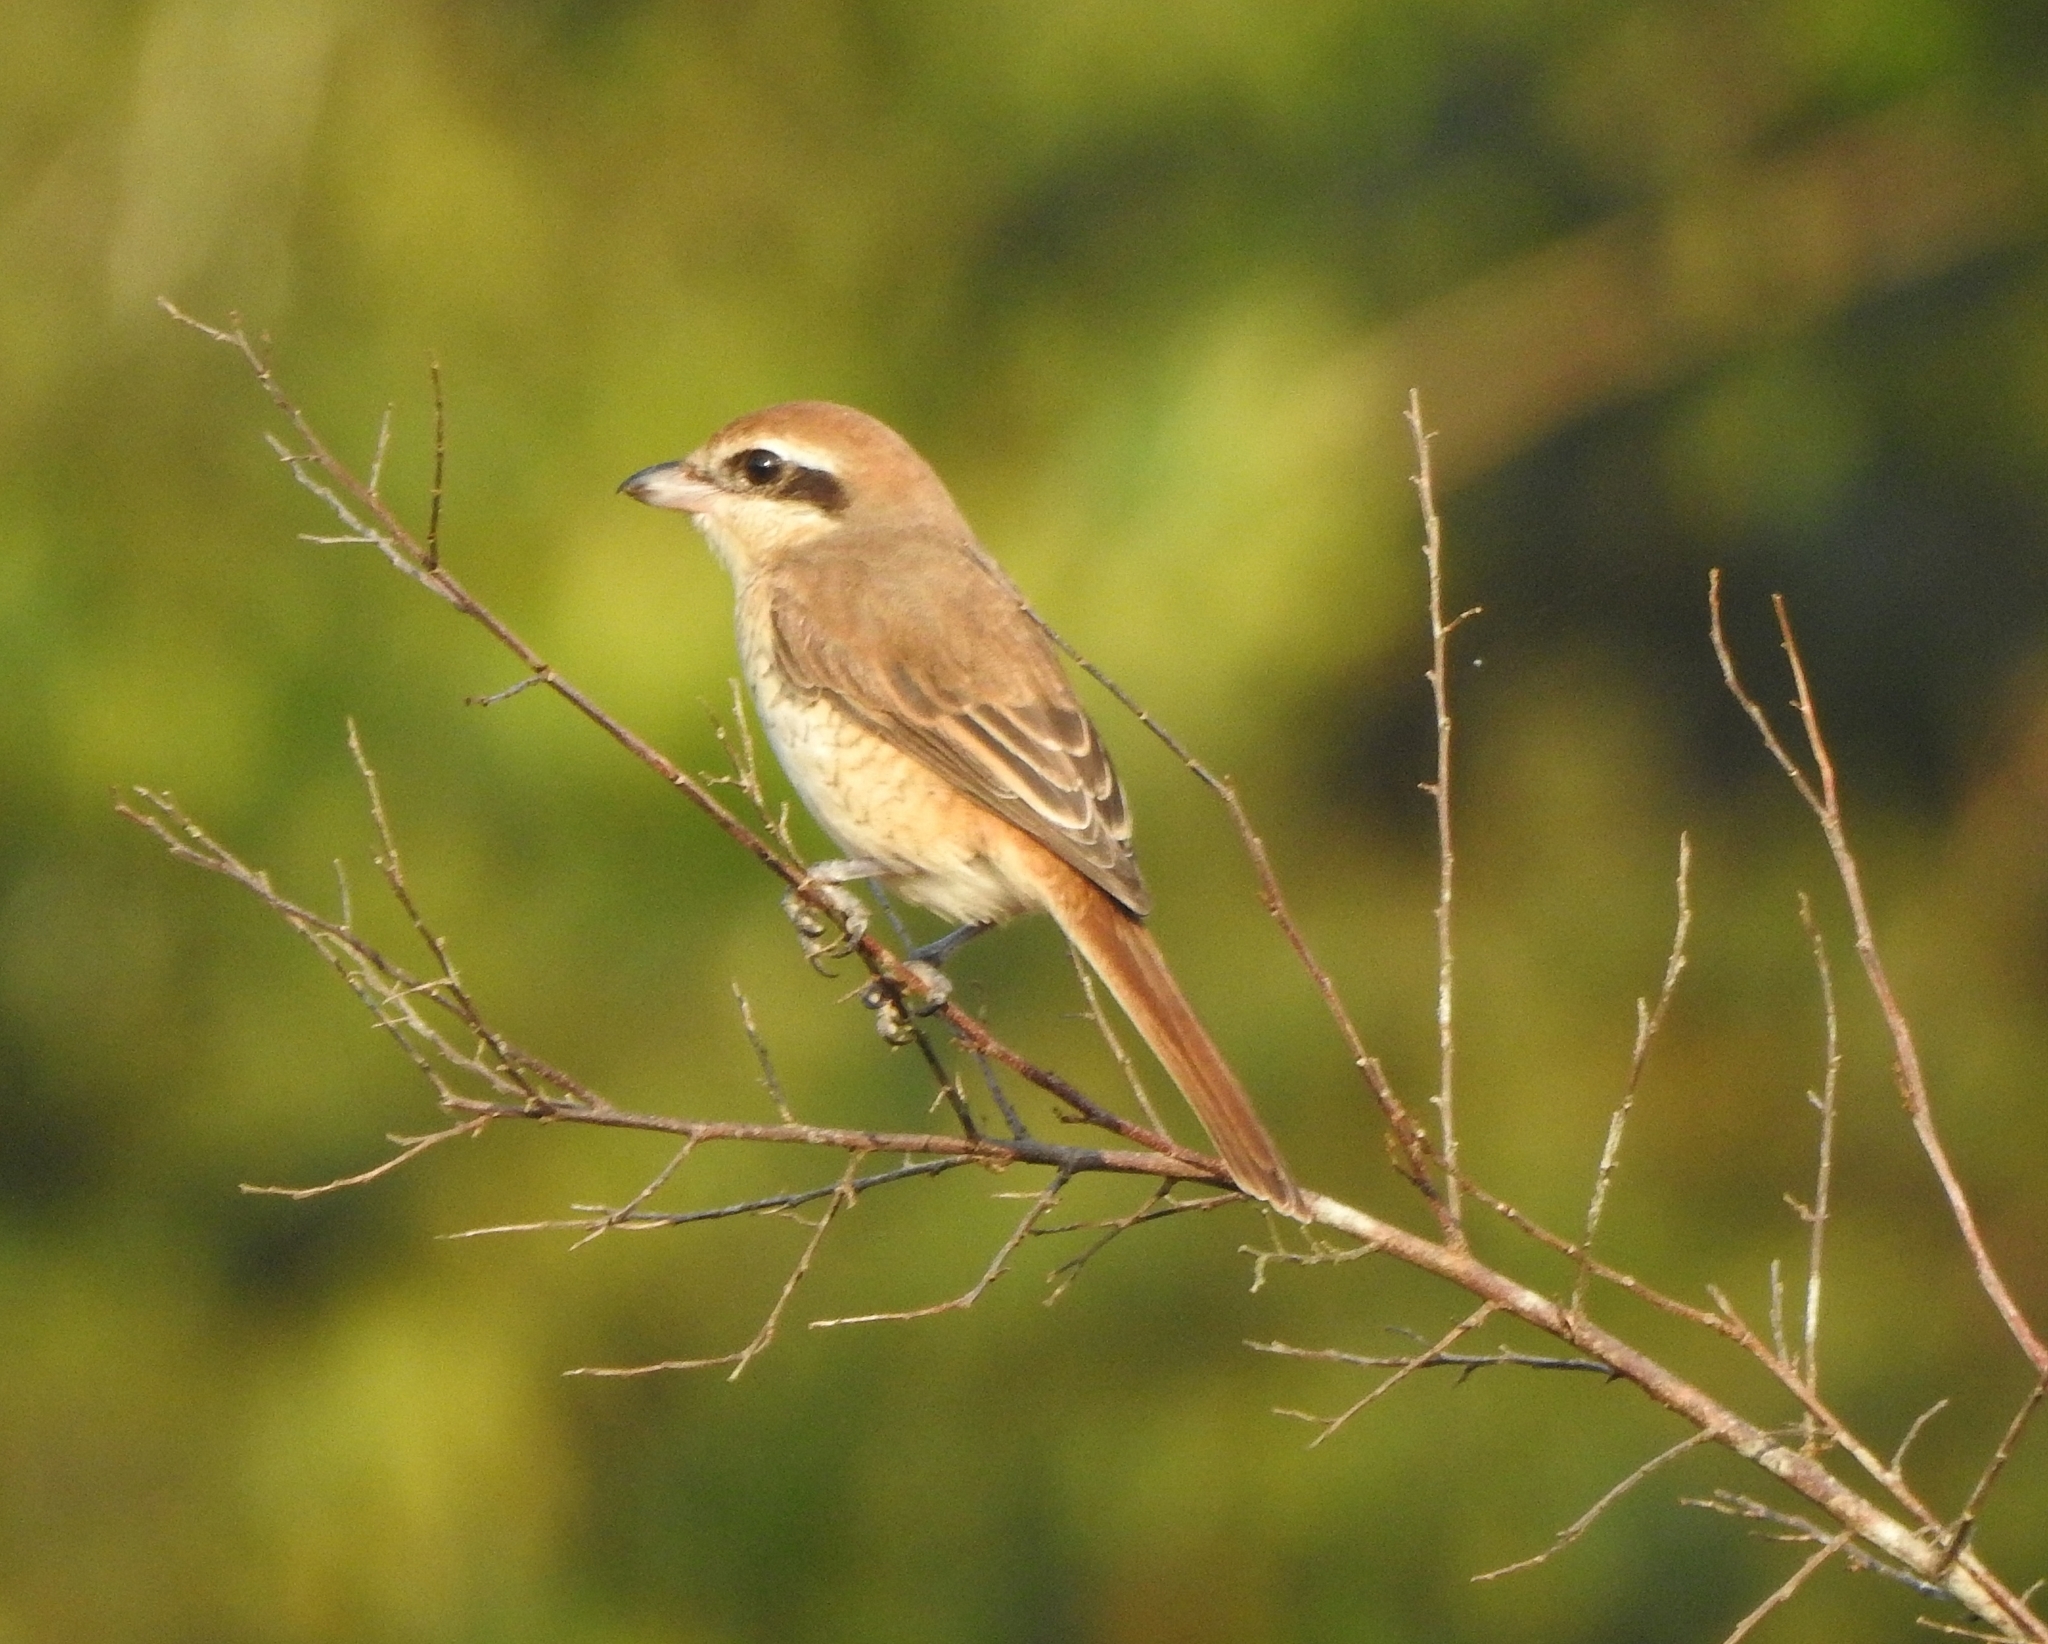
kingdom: Animalia
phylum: Chordata
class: Aves
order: Passeriformes
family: Laniidae
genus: Lanius
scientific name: Lanius cristatus
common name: Brown shrike
